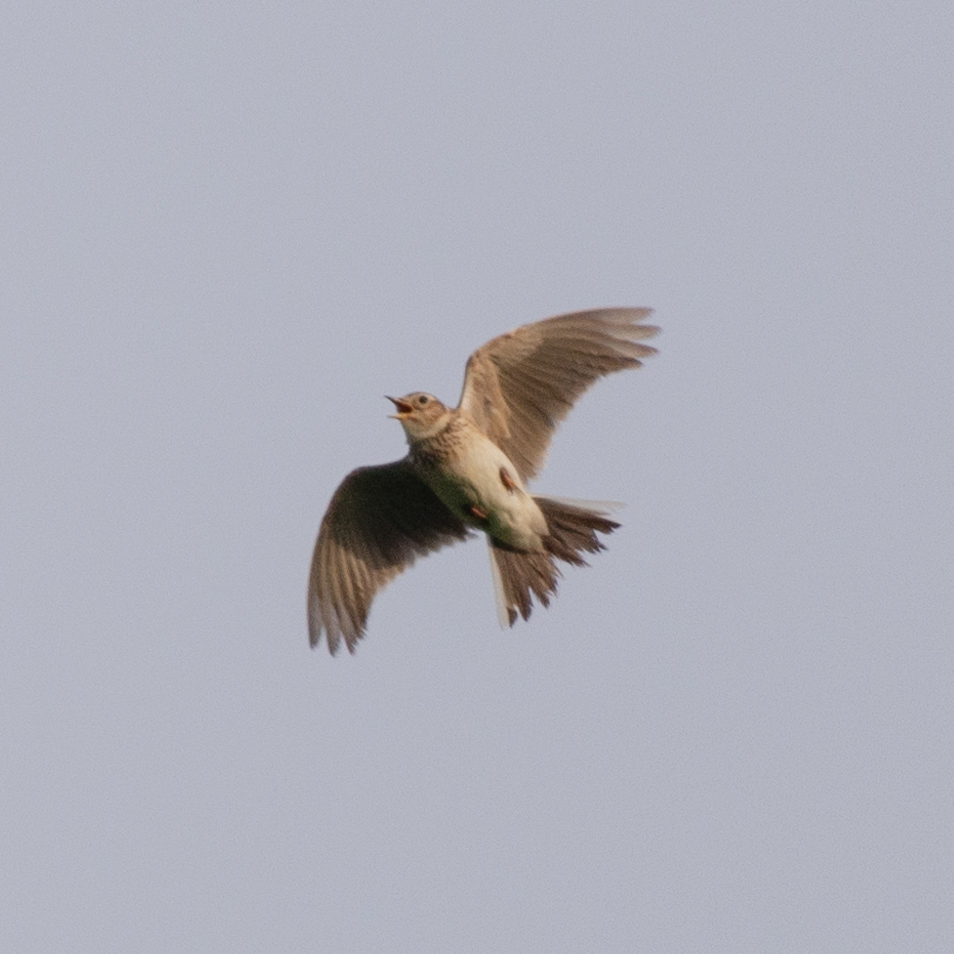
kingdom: Animalia
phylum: Chordata
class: Aves
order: Passeriformes
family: Alaudidae
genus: Alauda
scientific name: Alauda arvensis
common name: Eurasian skylark
